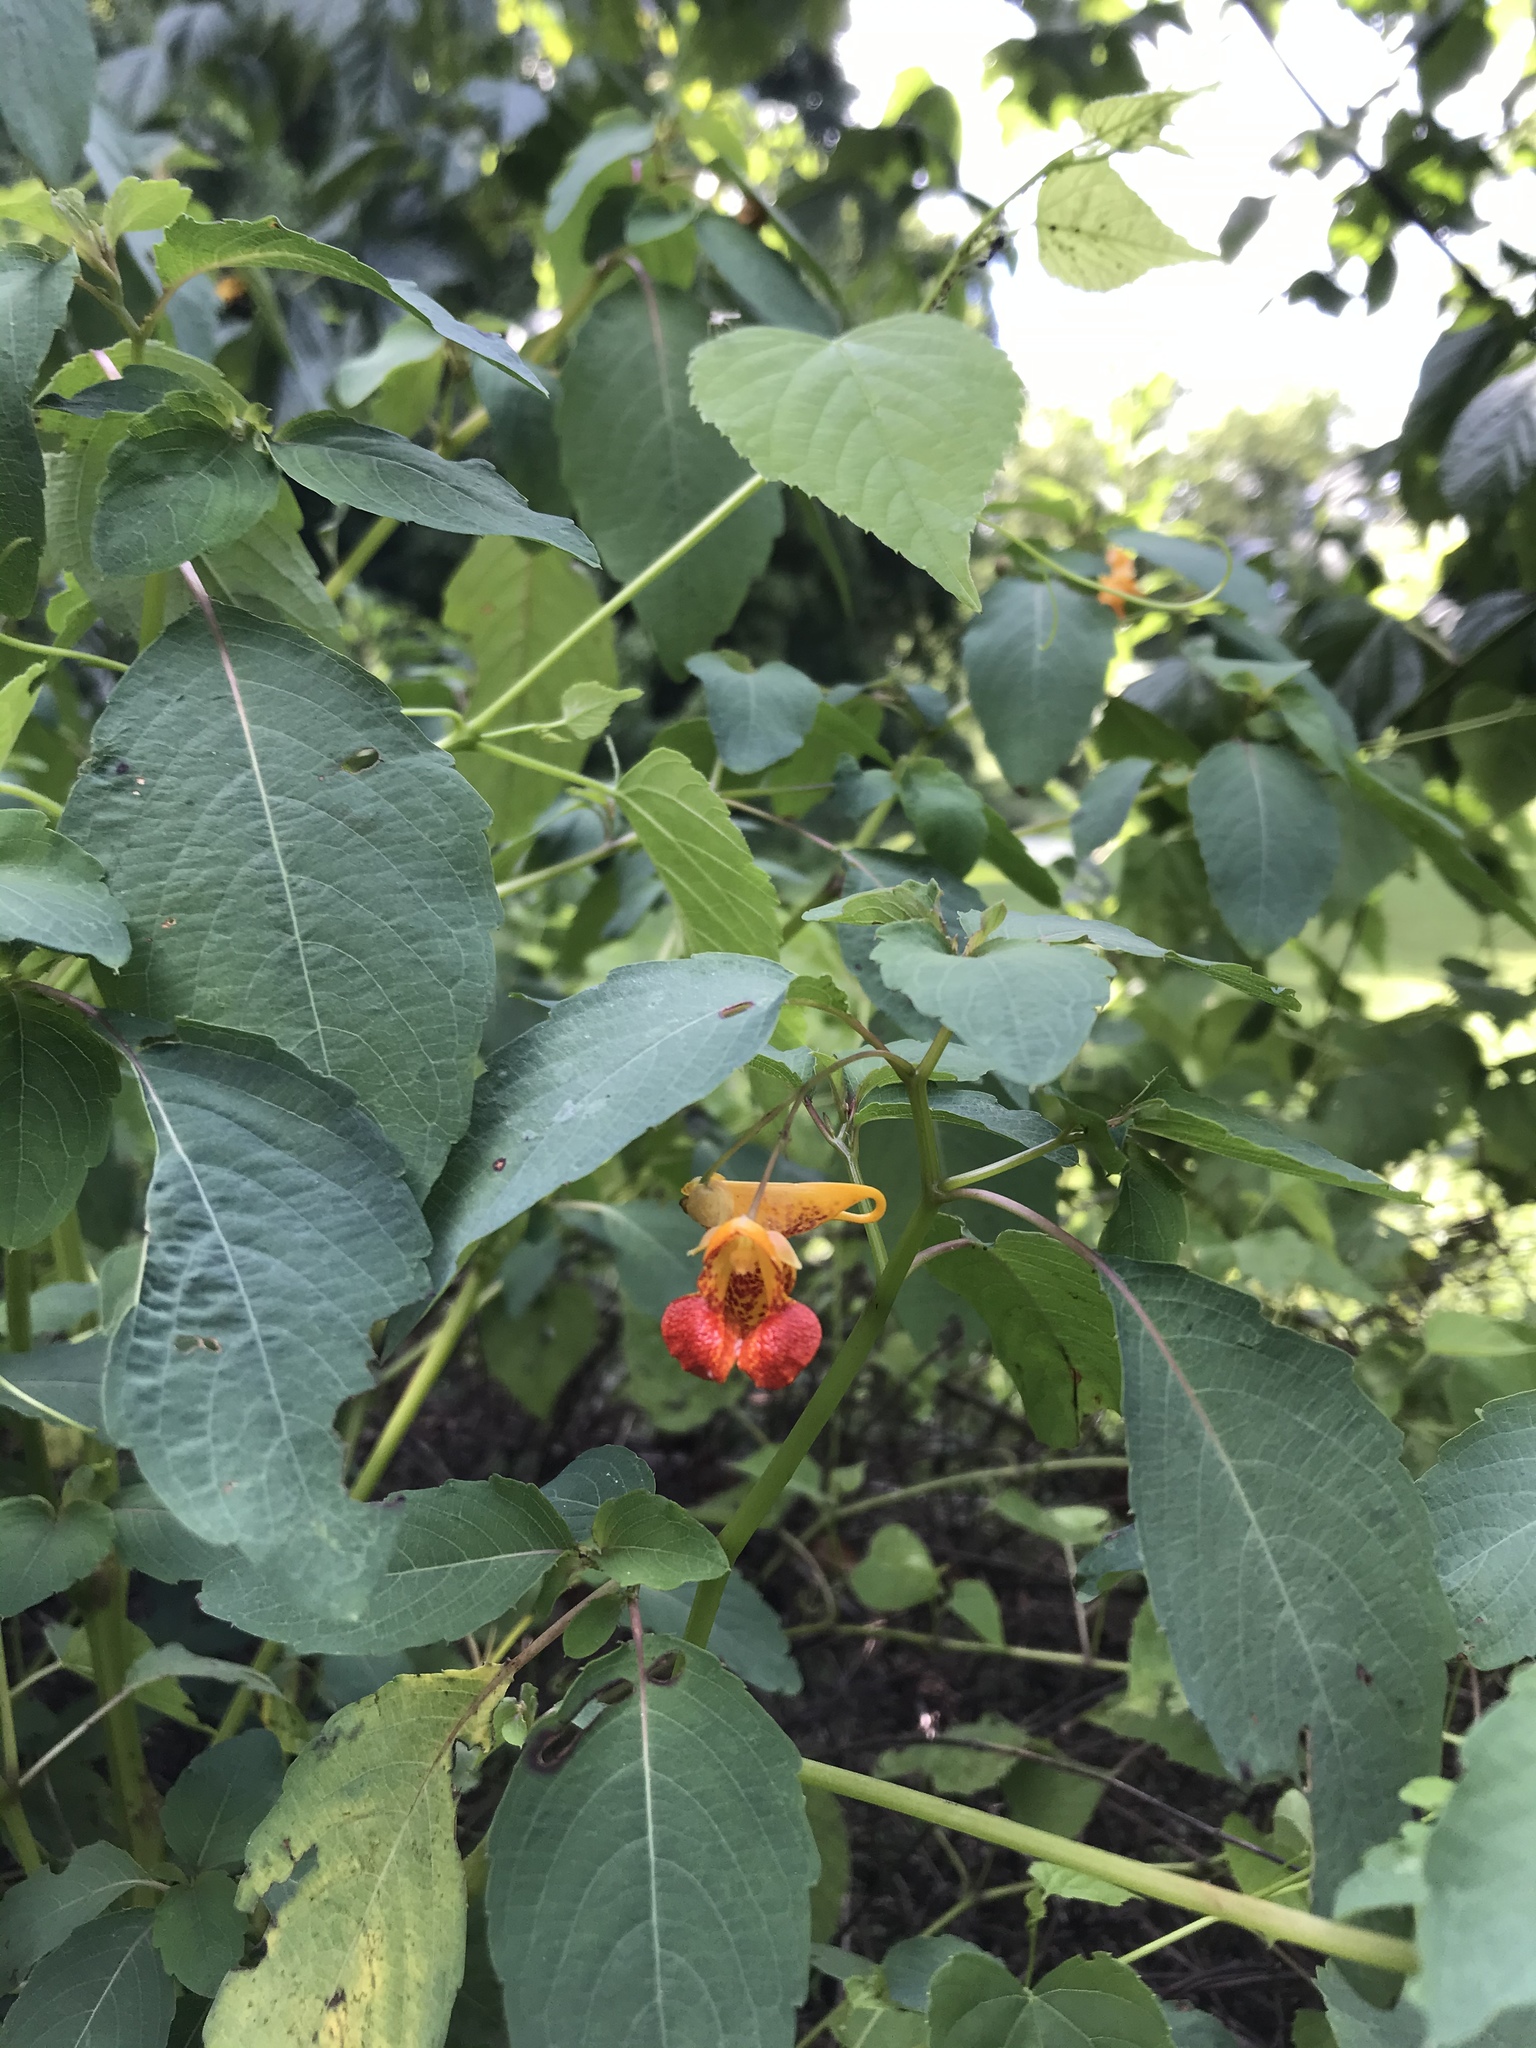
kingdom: Plantae
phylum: Tracheophyta
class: Magnoliopsida
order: Ericales
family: Balsaminaceae
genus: Impatiens
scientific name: Impatiens capensis
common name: Orange balsam
